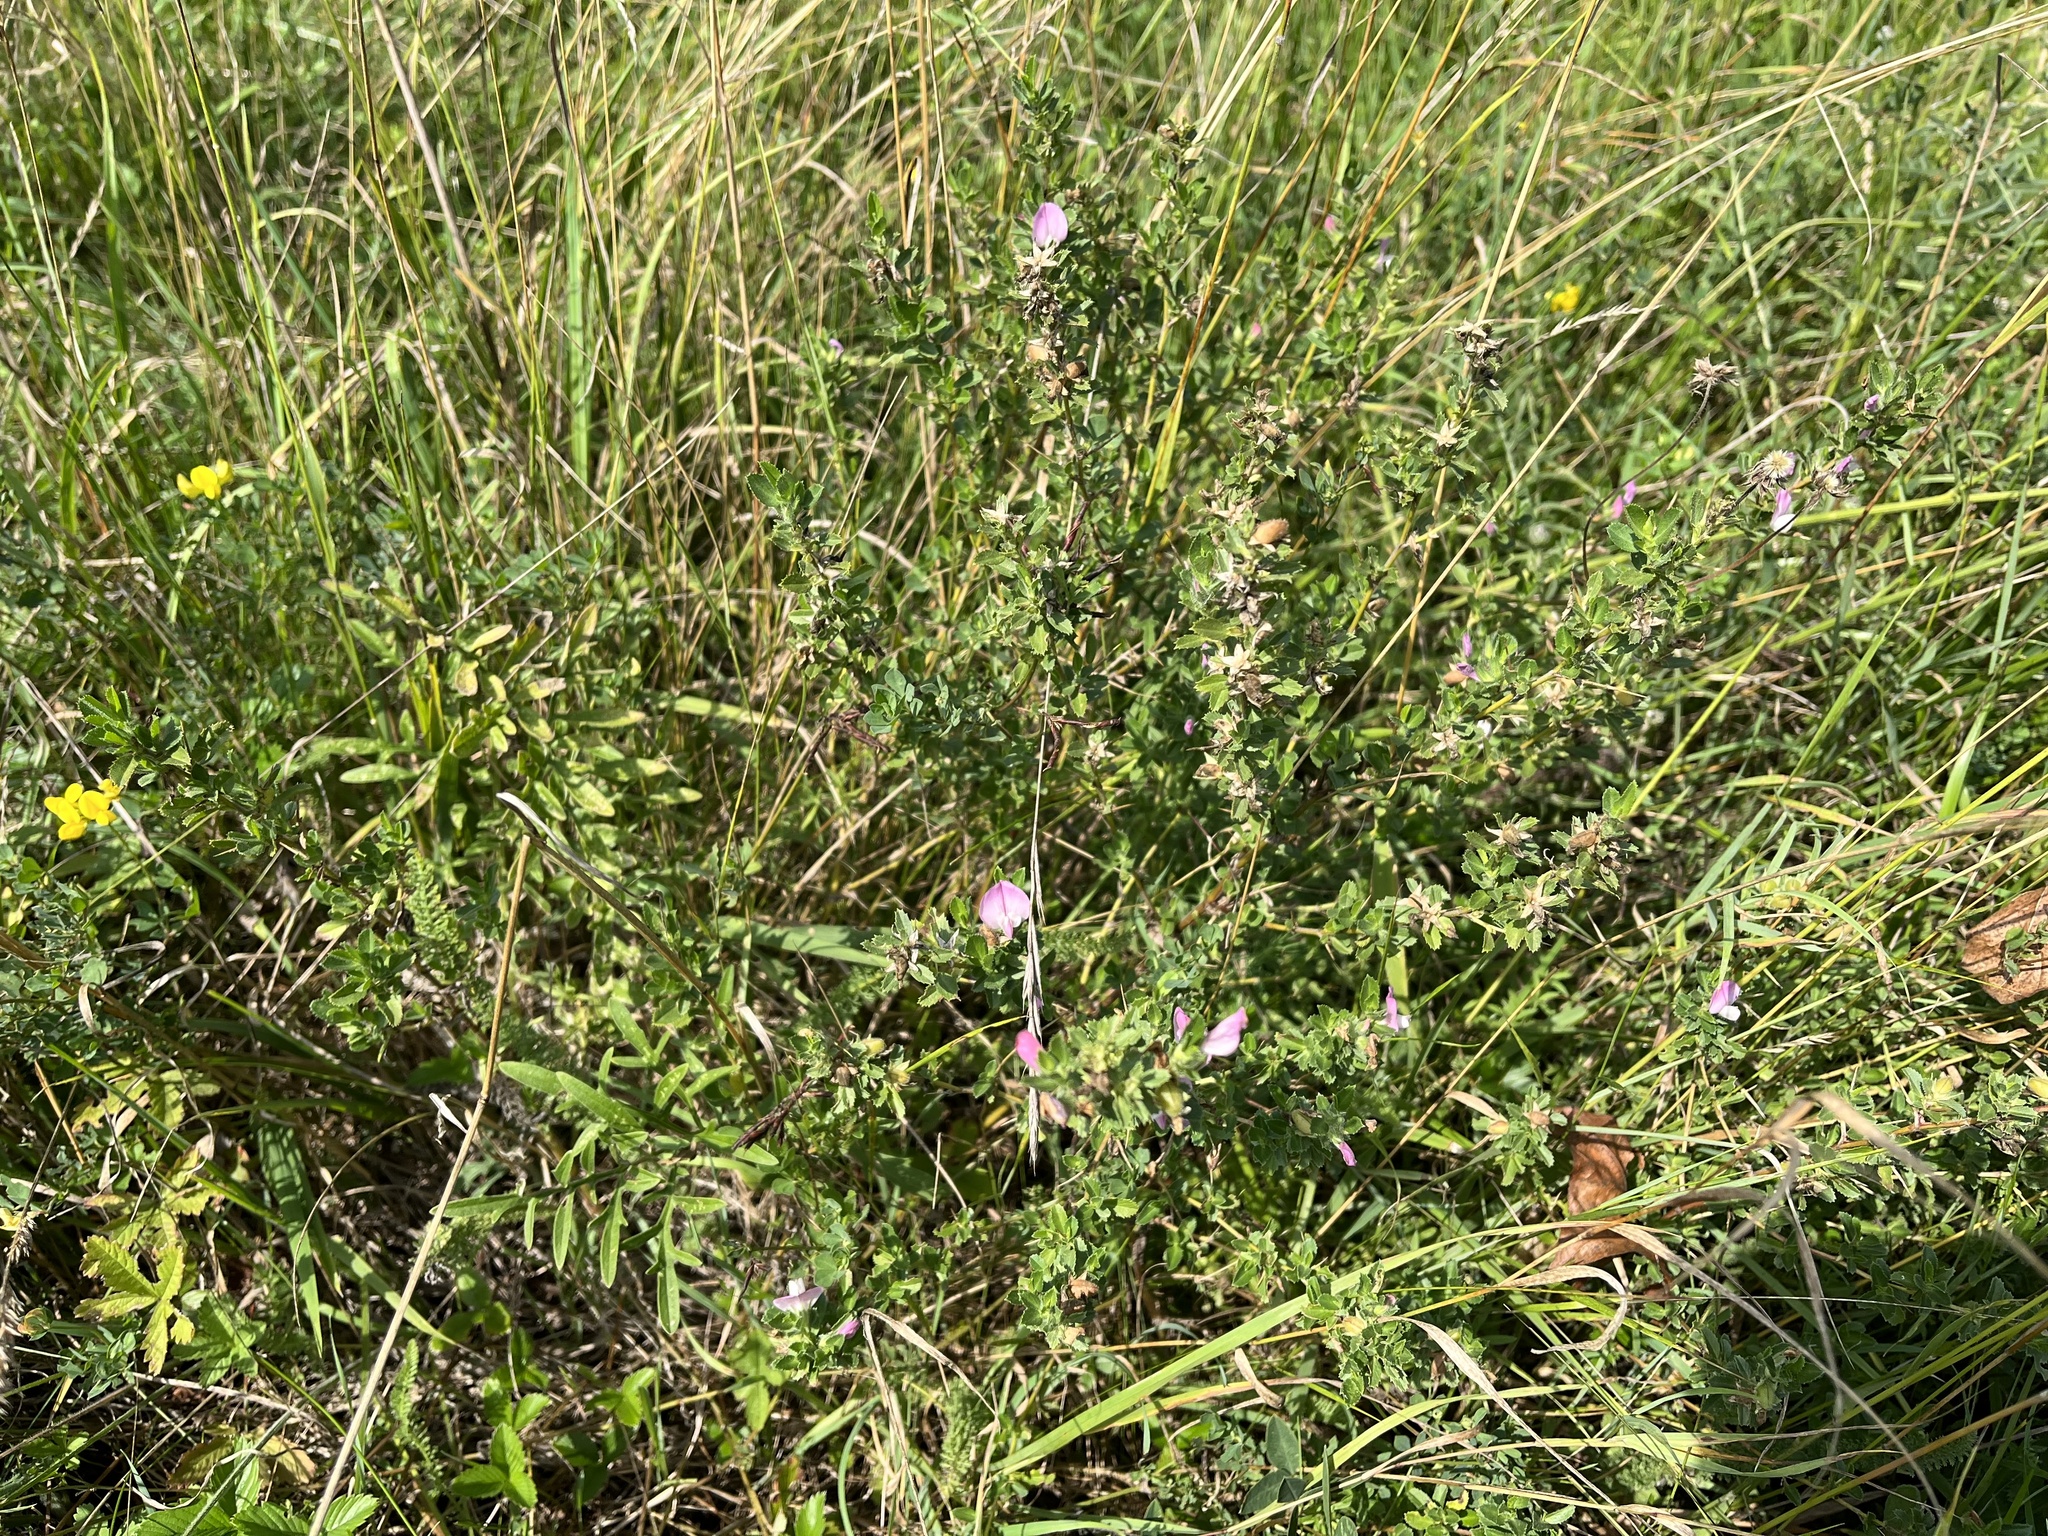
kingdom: Plantae
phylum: Tracheophyta
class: Magnoliopsida
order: Fabales
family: Fabaceae
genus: Ononis
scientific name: Ononis spinosa
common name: Spiny restharrow
